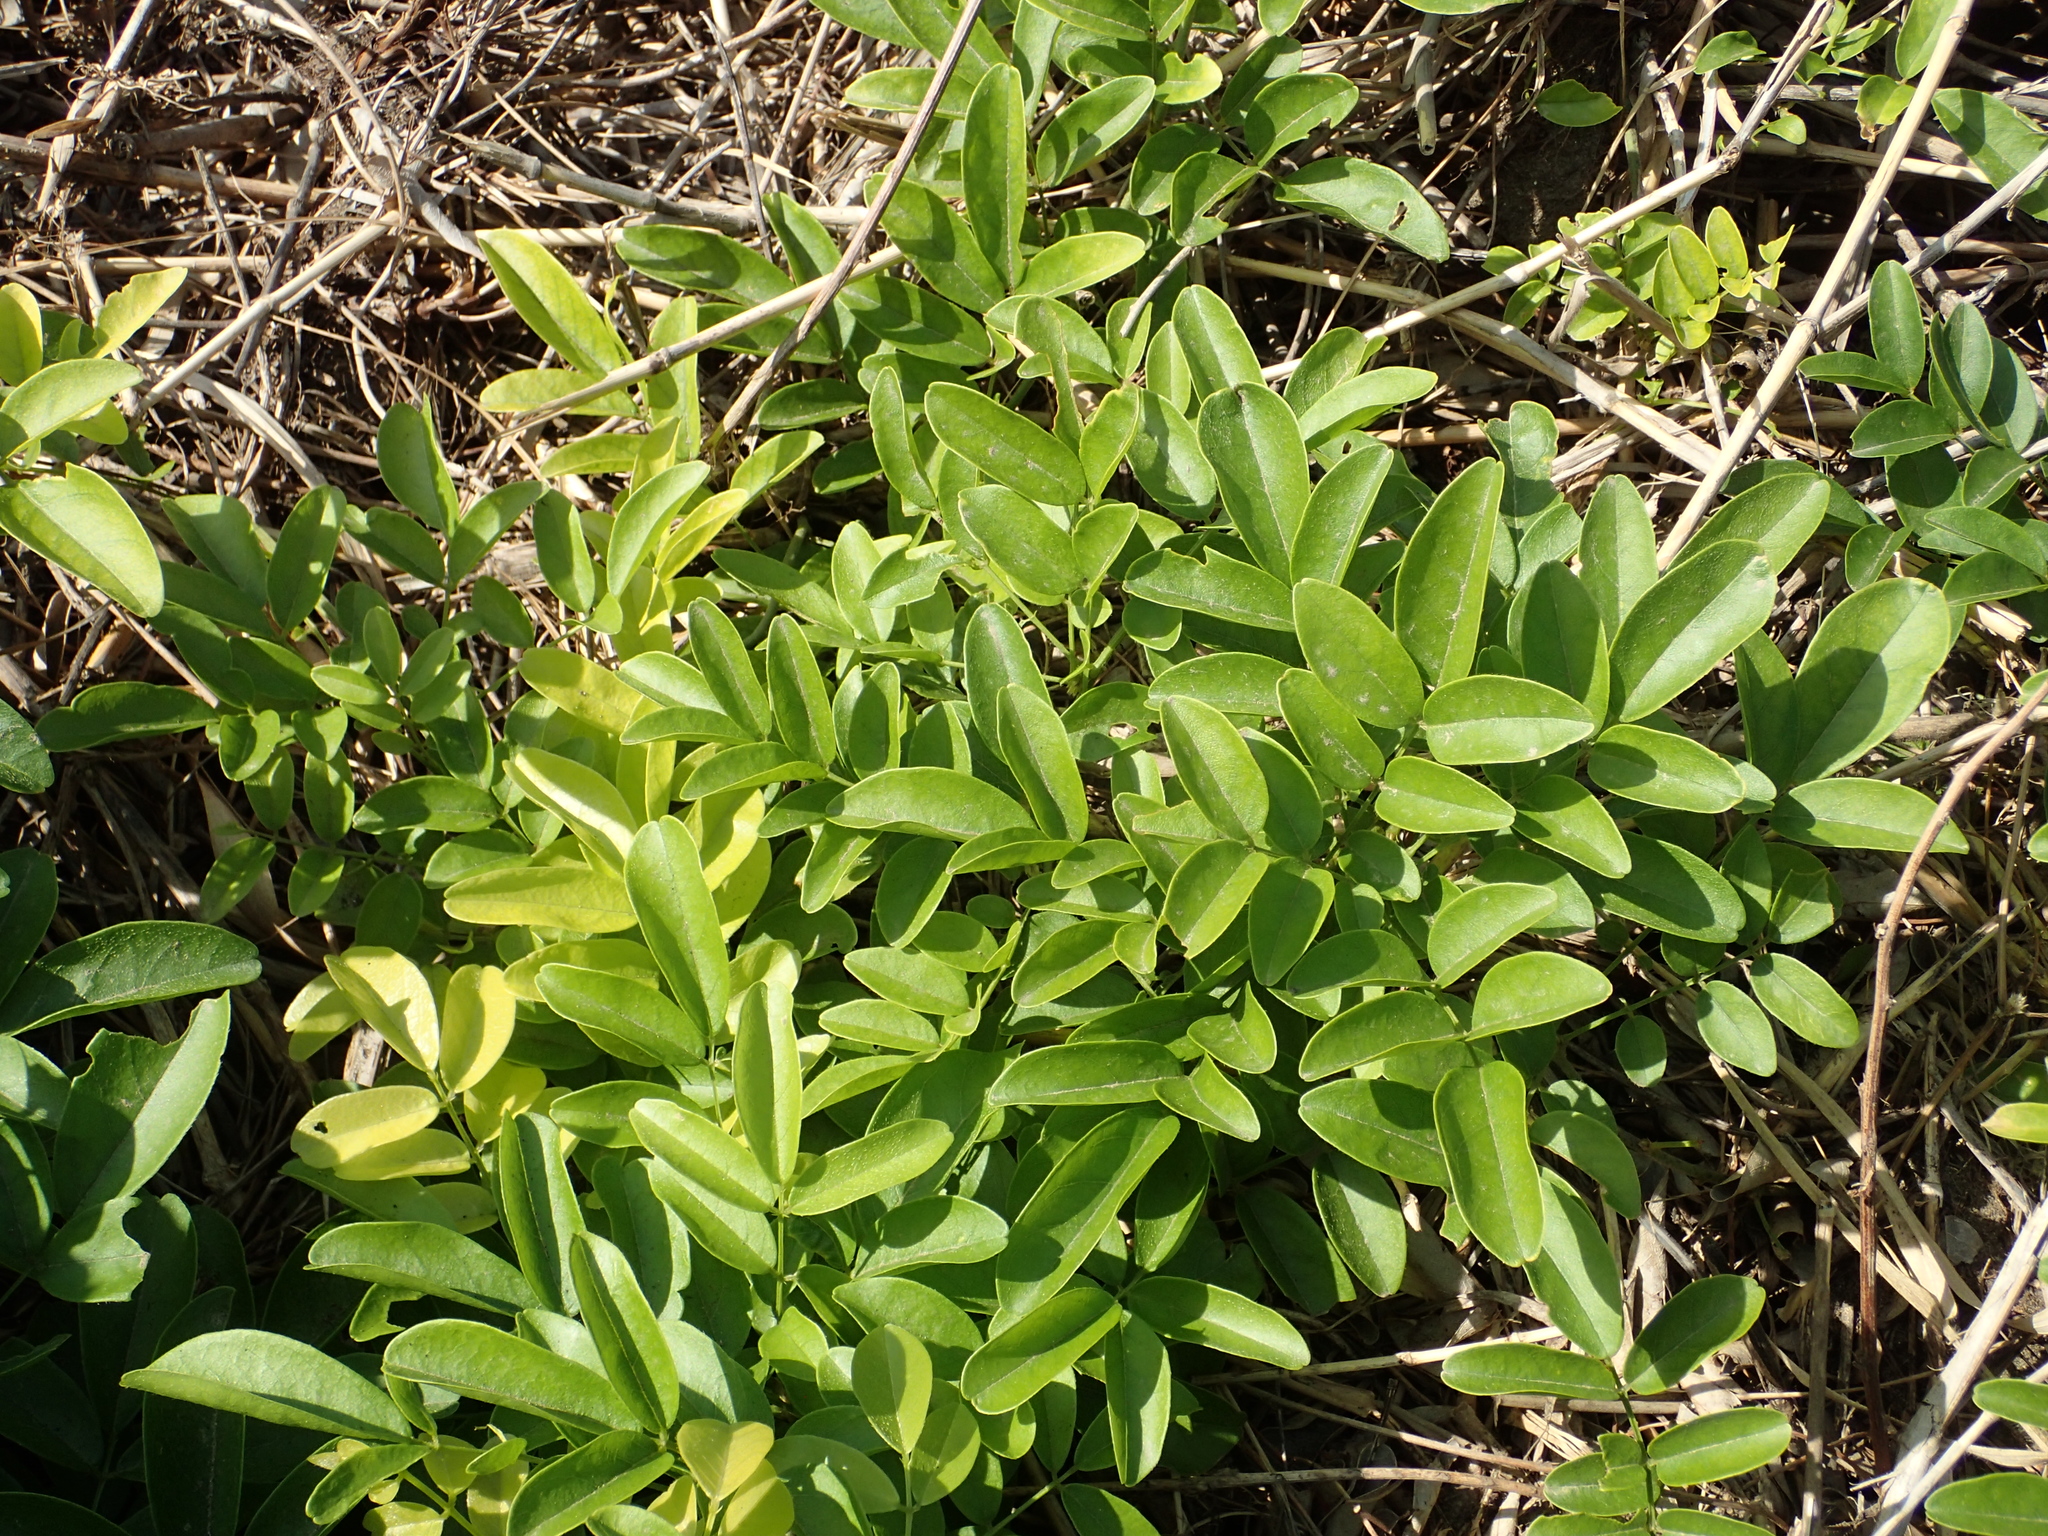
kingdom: Plantae
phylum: Tracheophyta
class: Magnoliopsida
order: Fabales
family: Fabaceae
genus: Wisteriopsis
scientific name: Wisteriopsis reticulata
